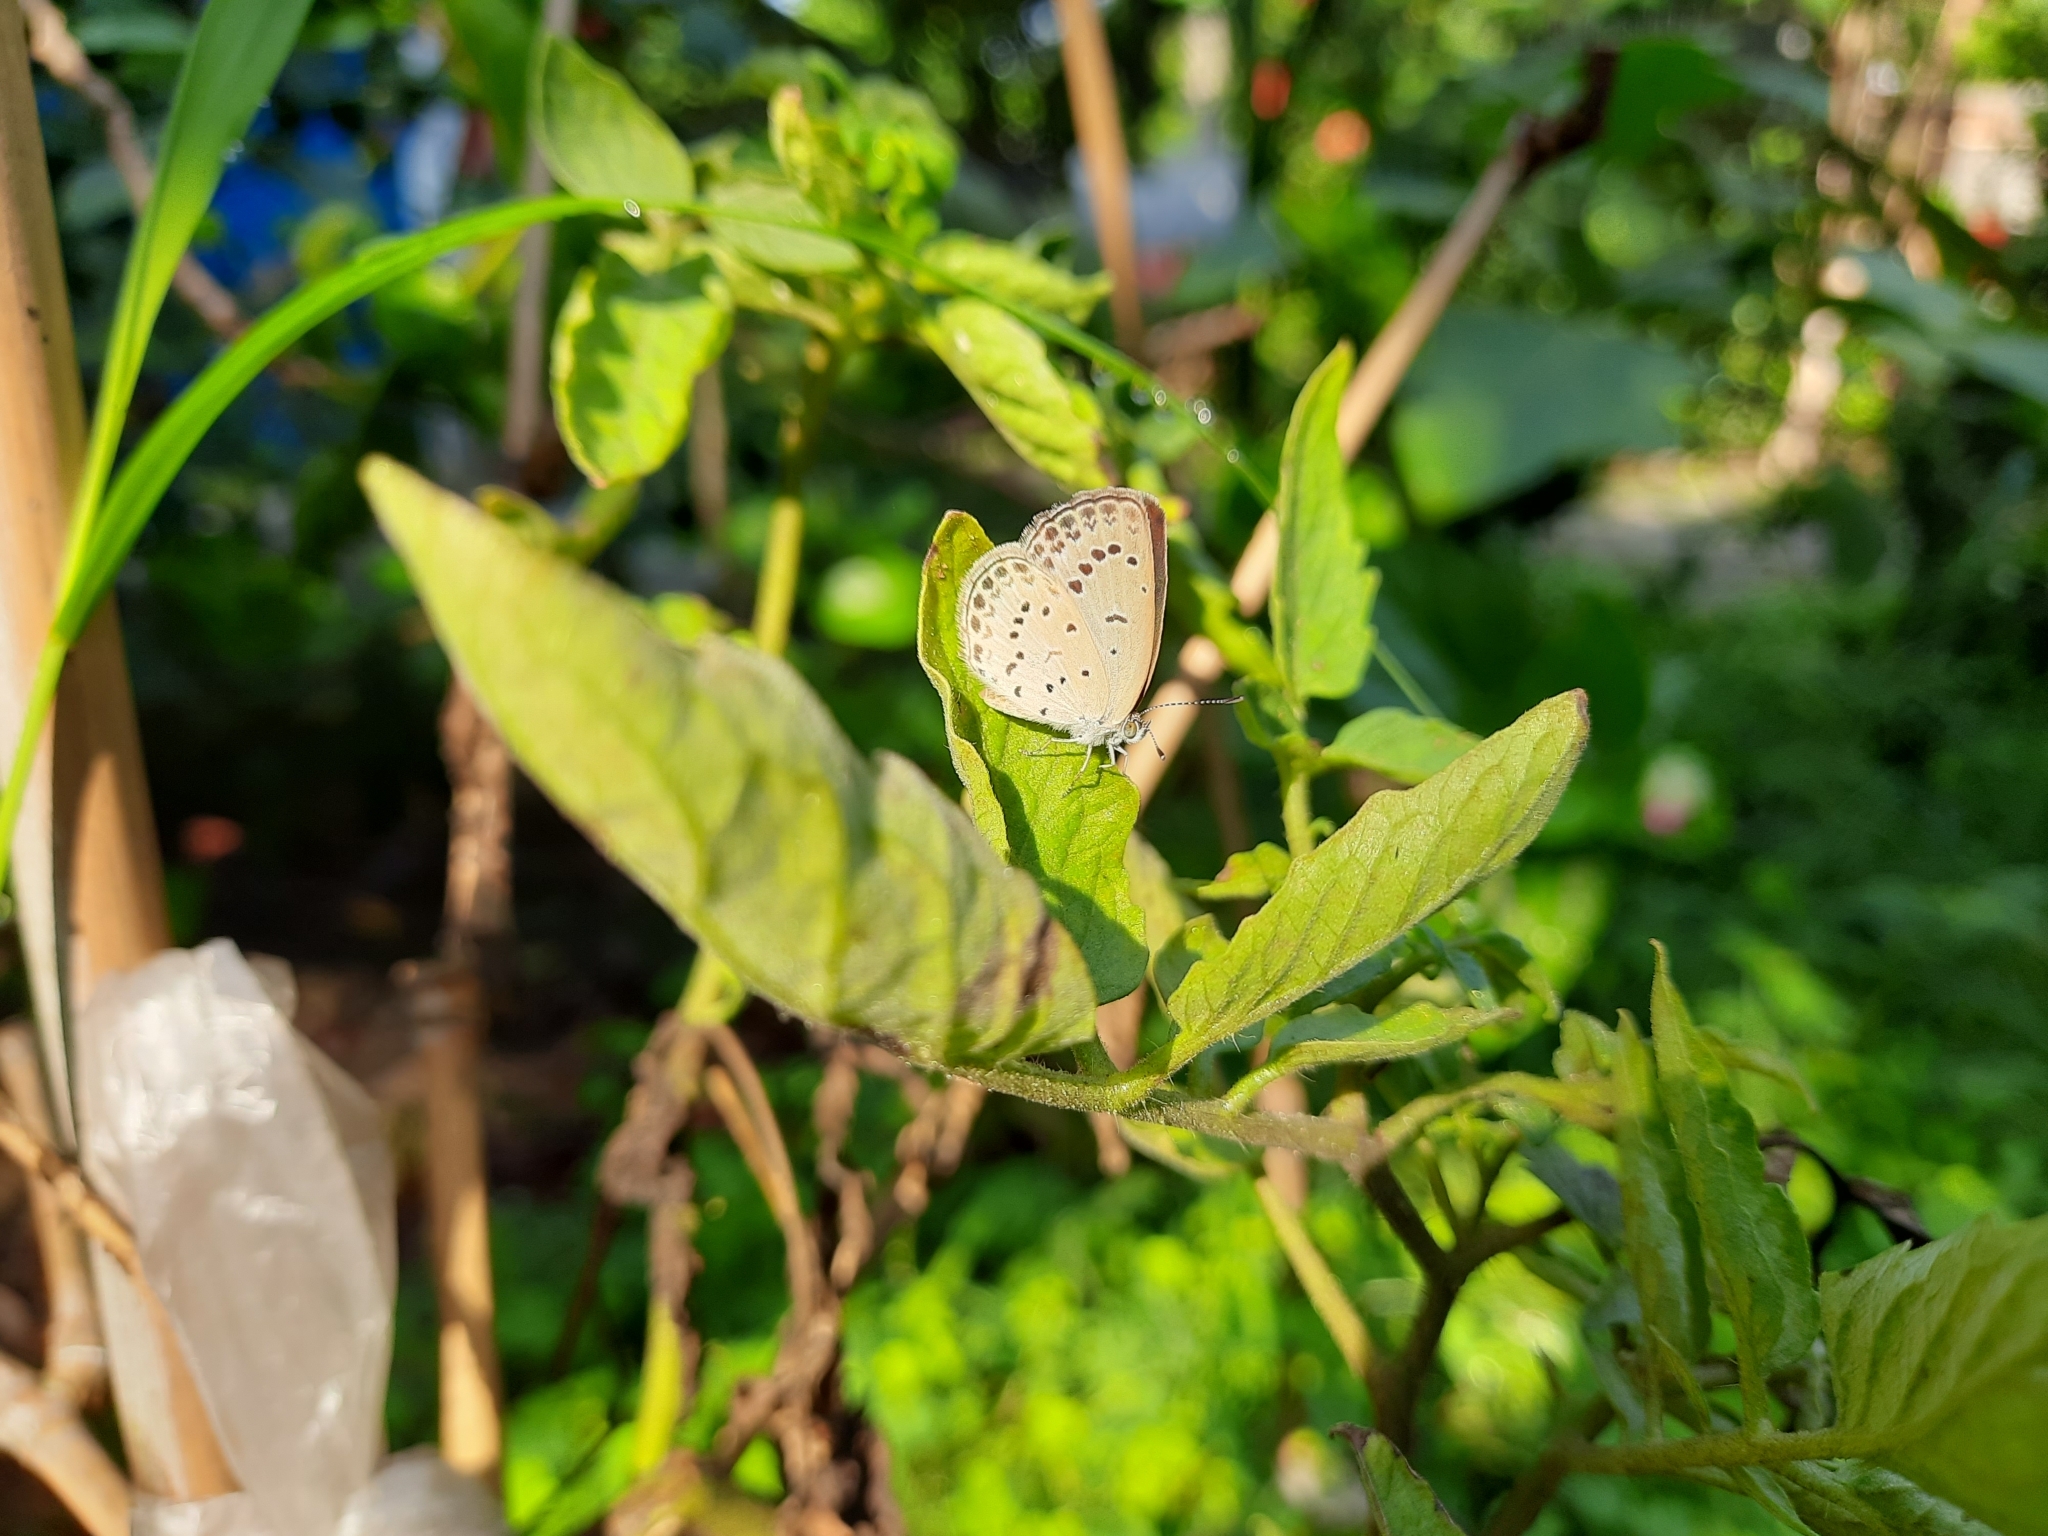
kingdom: Animalia
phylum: Arthropoda
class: Insecta
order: Lepidoptera
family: Lycaenidae
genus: Pseudozizeeria
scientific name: Pseudozizeeria maha
